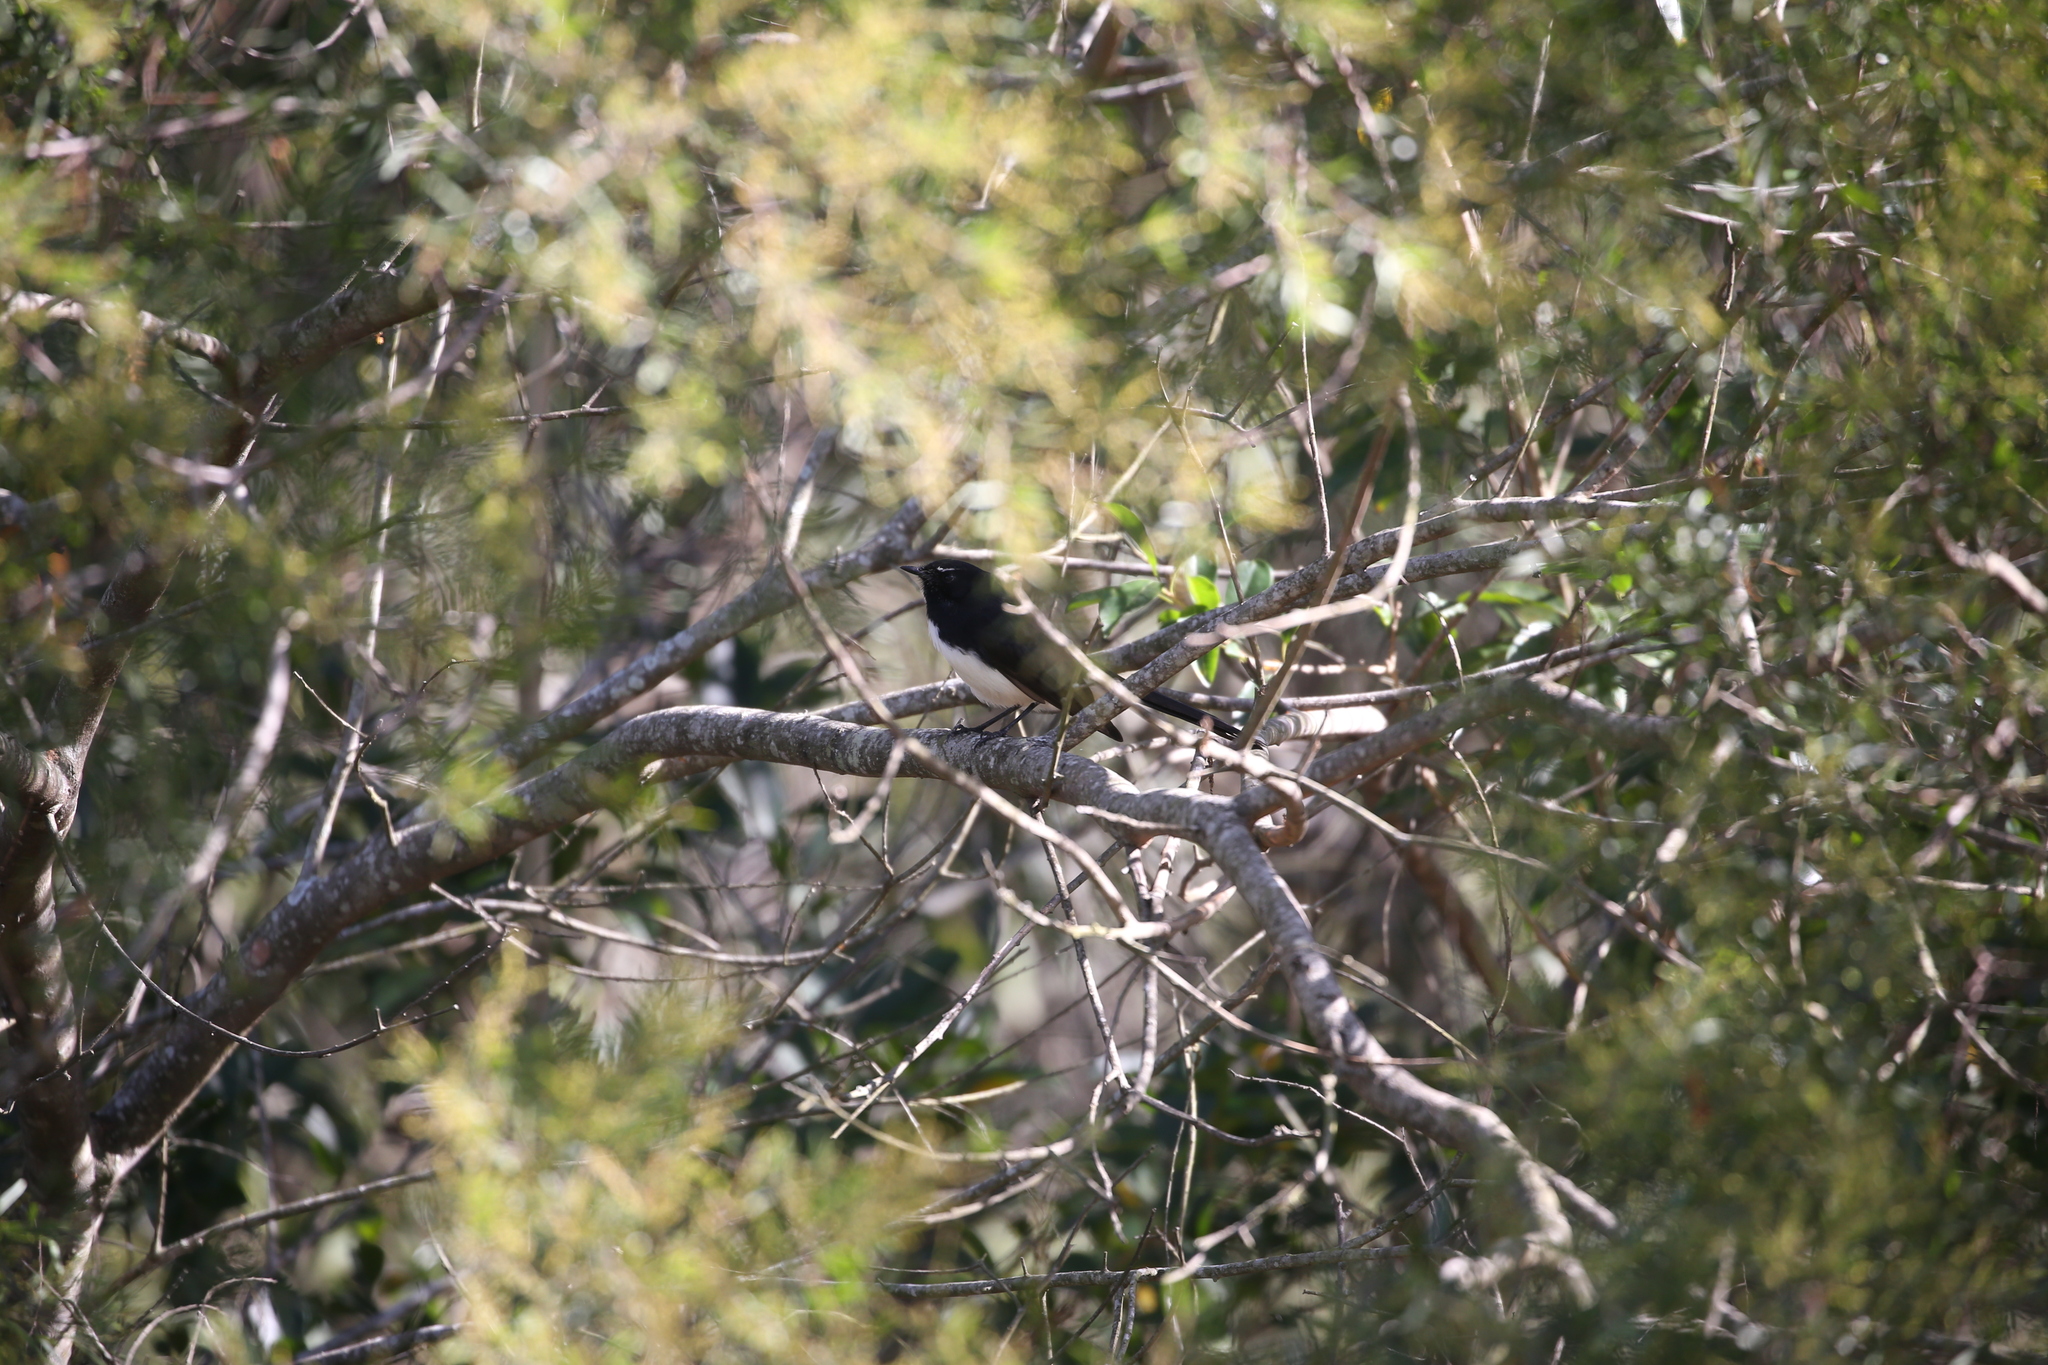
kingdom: Animalia
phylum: Chordata
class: Aves
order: Passeriformes
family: Rhipiduridae
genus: Rhipidura
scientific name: Rhipidura leucophrys
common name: Willie wagtail
